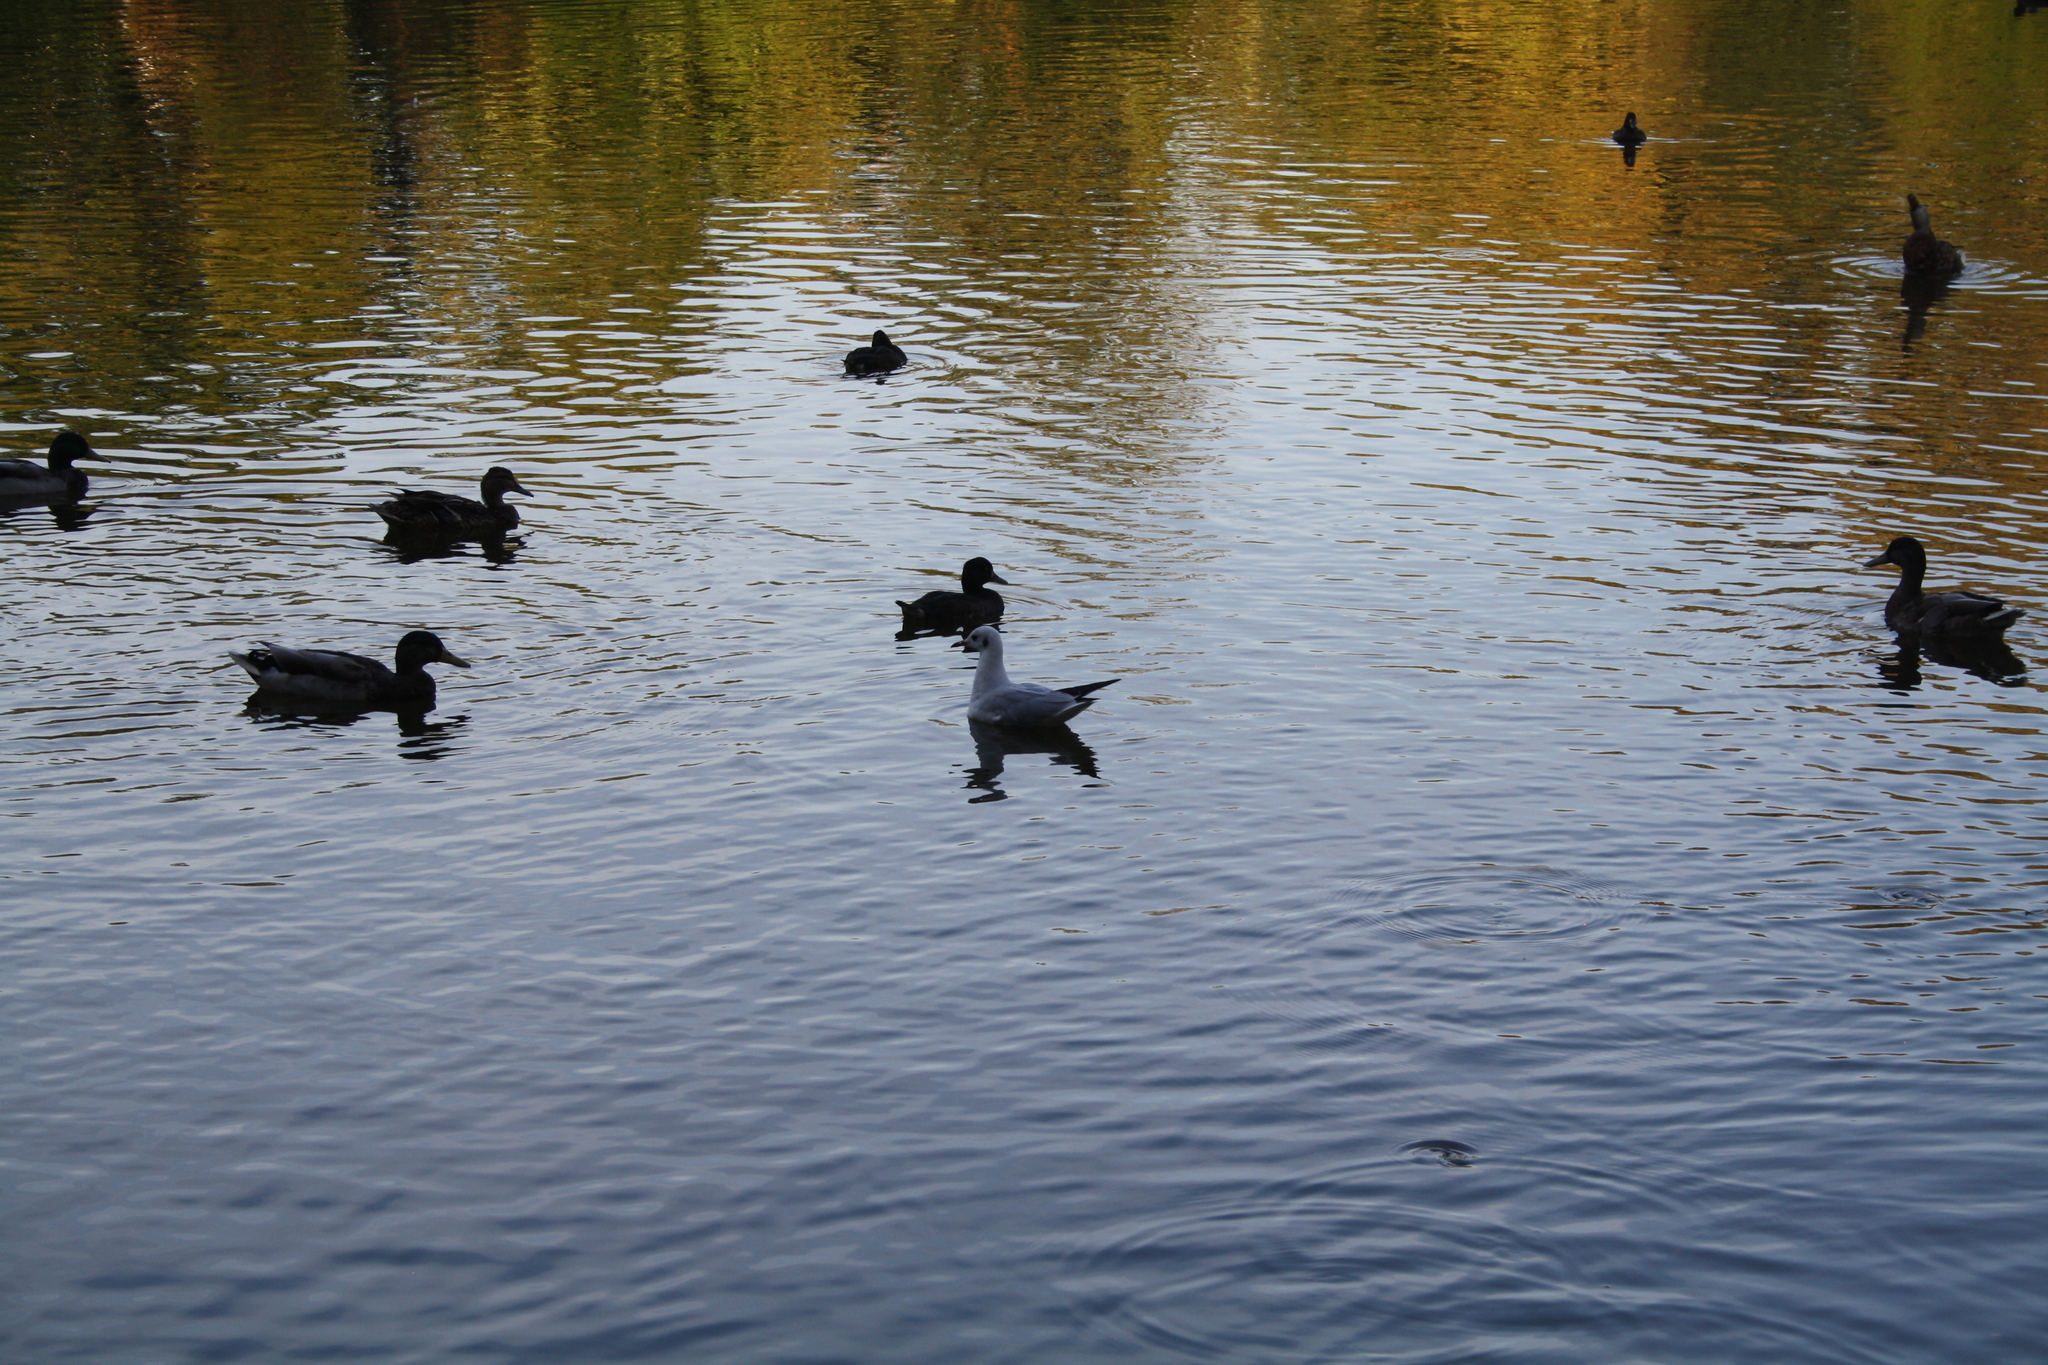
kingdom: Animalia
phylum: Chordata
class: Aves
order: Charadriiformes
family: Laridae
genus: Chroicocephalus
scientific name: Chroicocephalus ridibundus
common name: Black-headed gull
